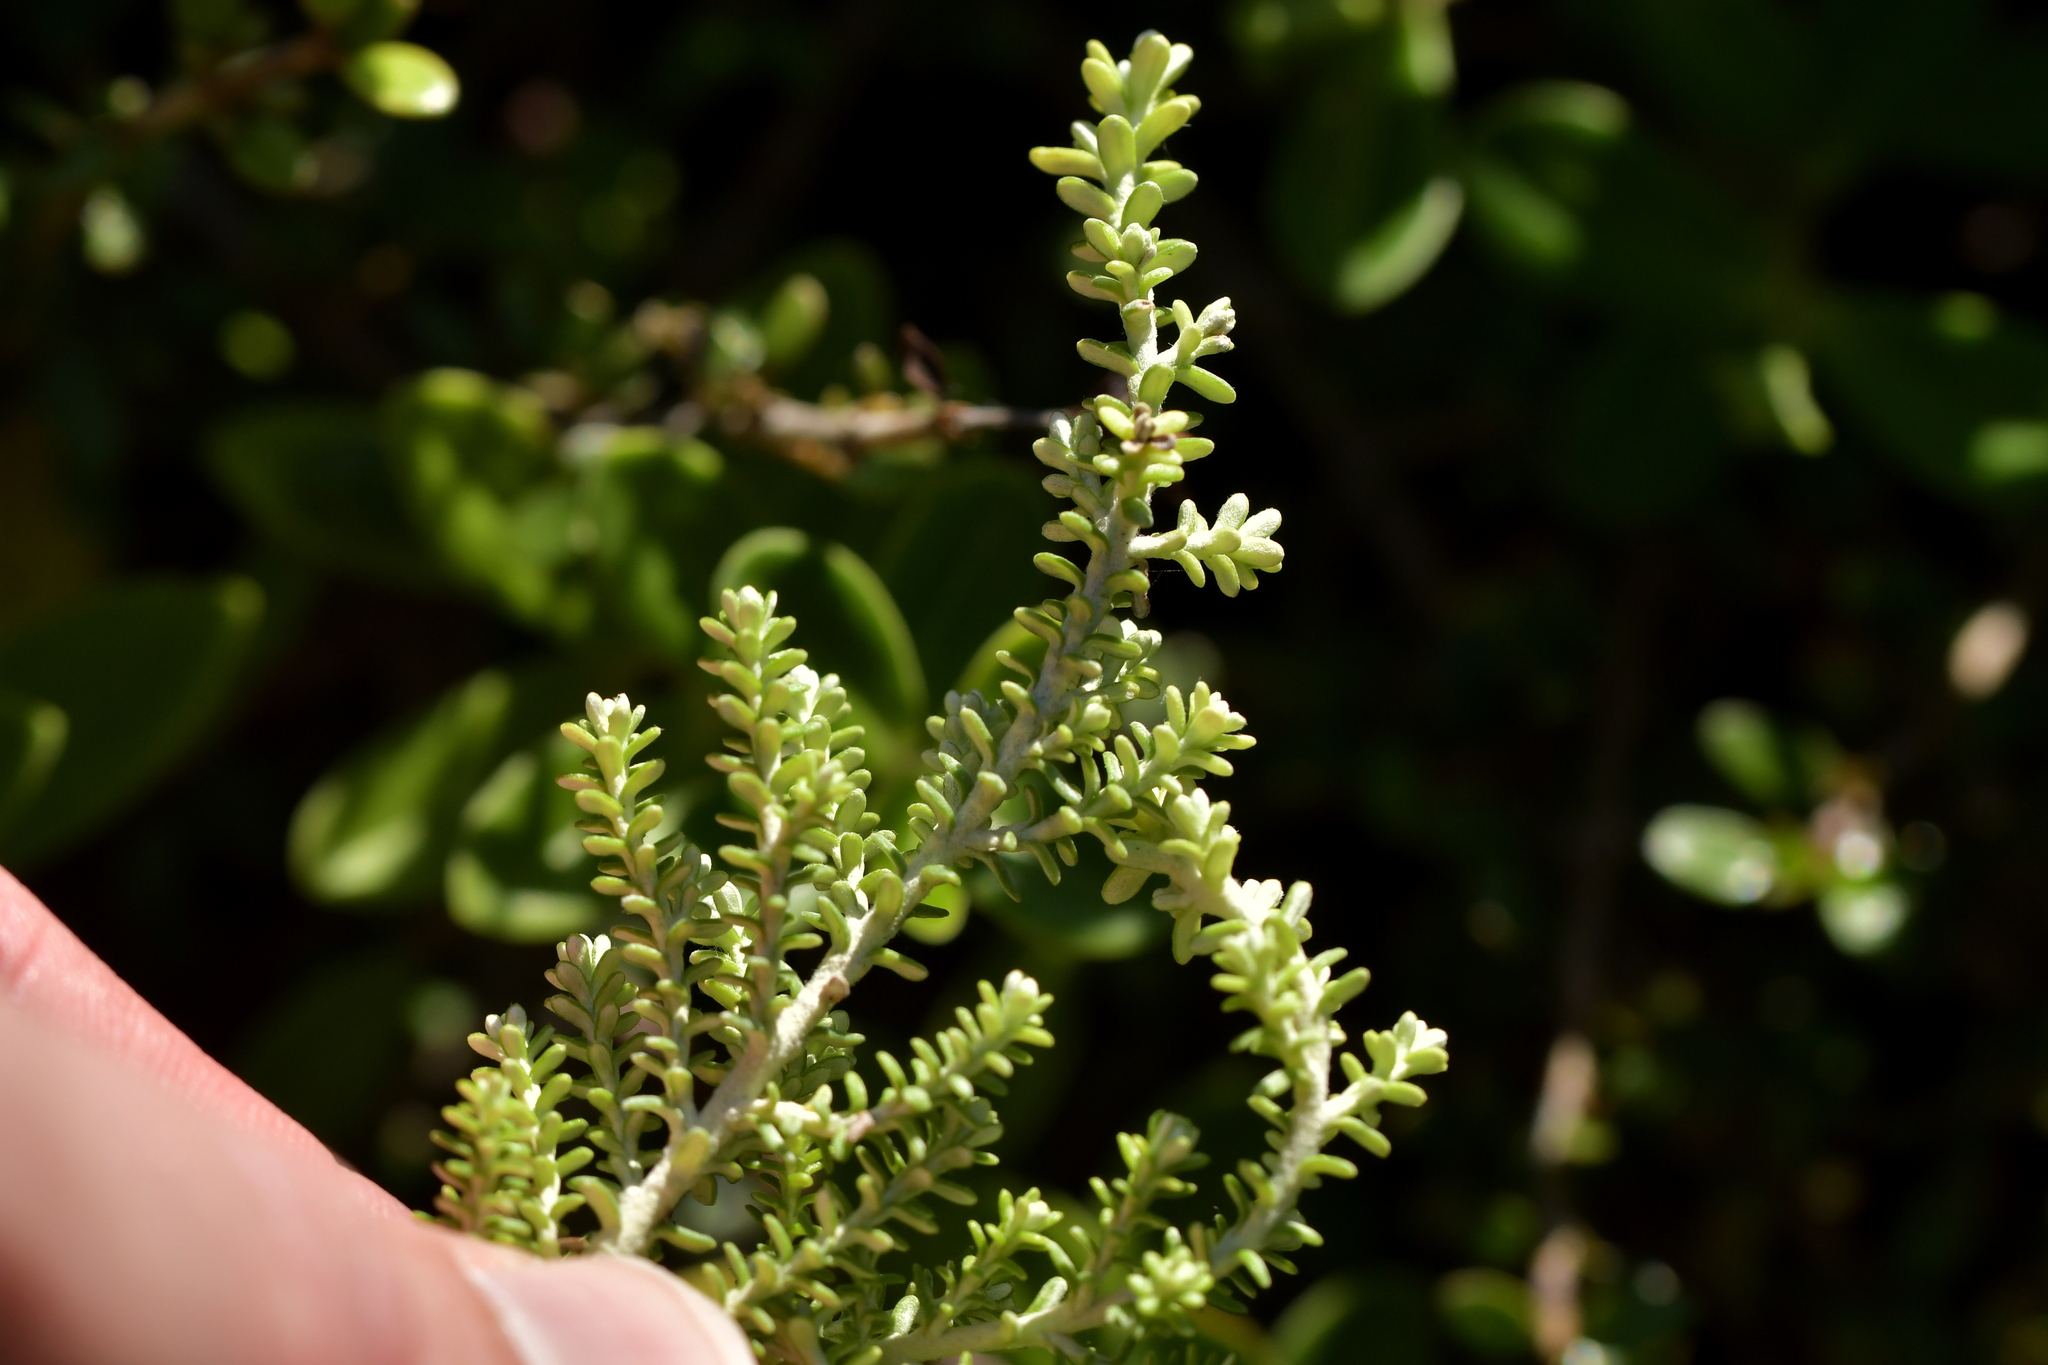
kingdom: Plantae
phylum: Tracheophyta
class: Magnoliopsida
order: Asterales
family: Asteraceae
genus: Ozothamnus
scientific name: Ozothamnus leptophyllus
